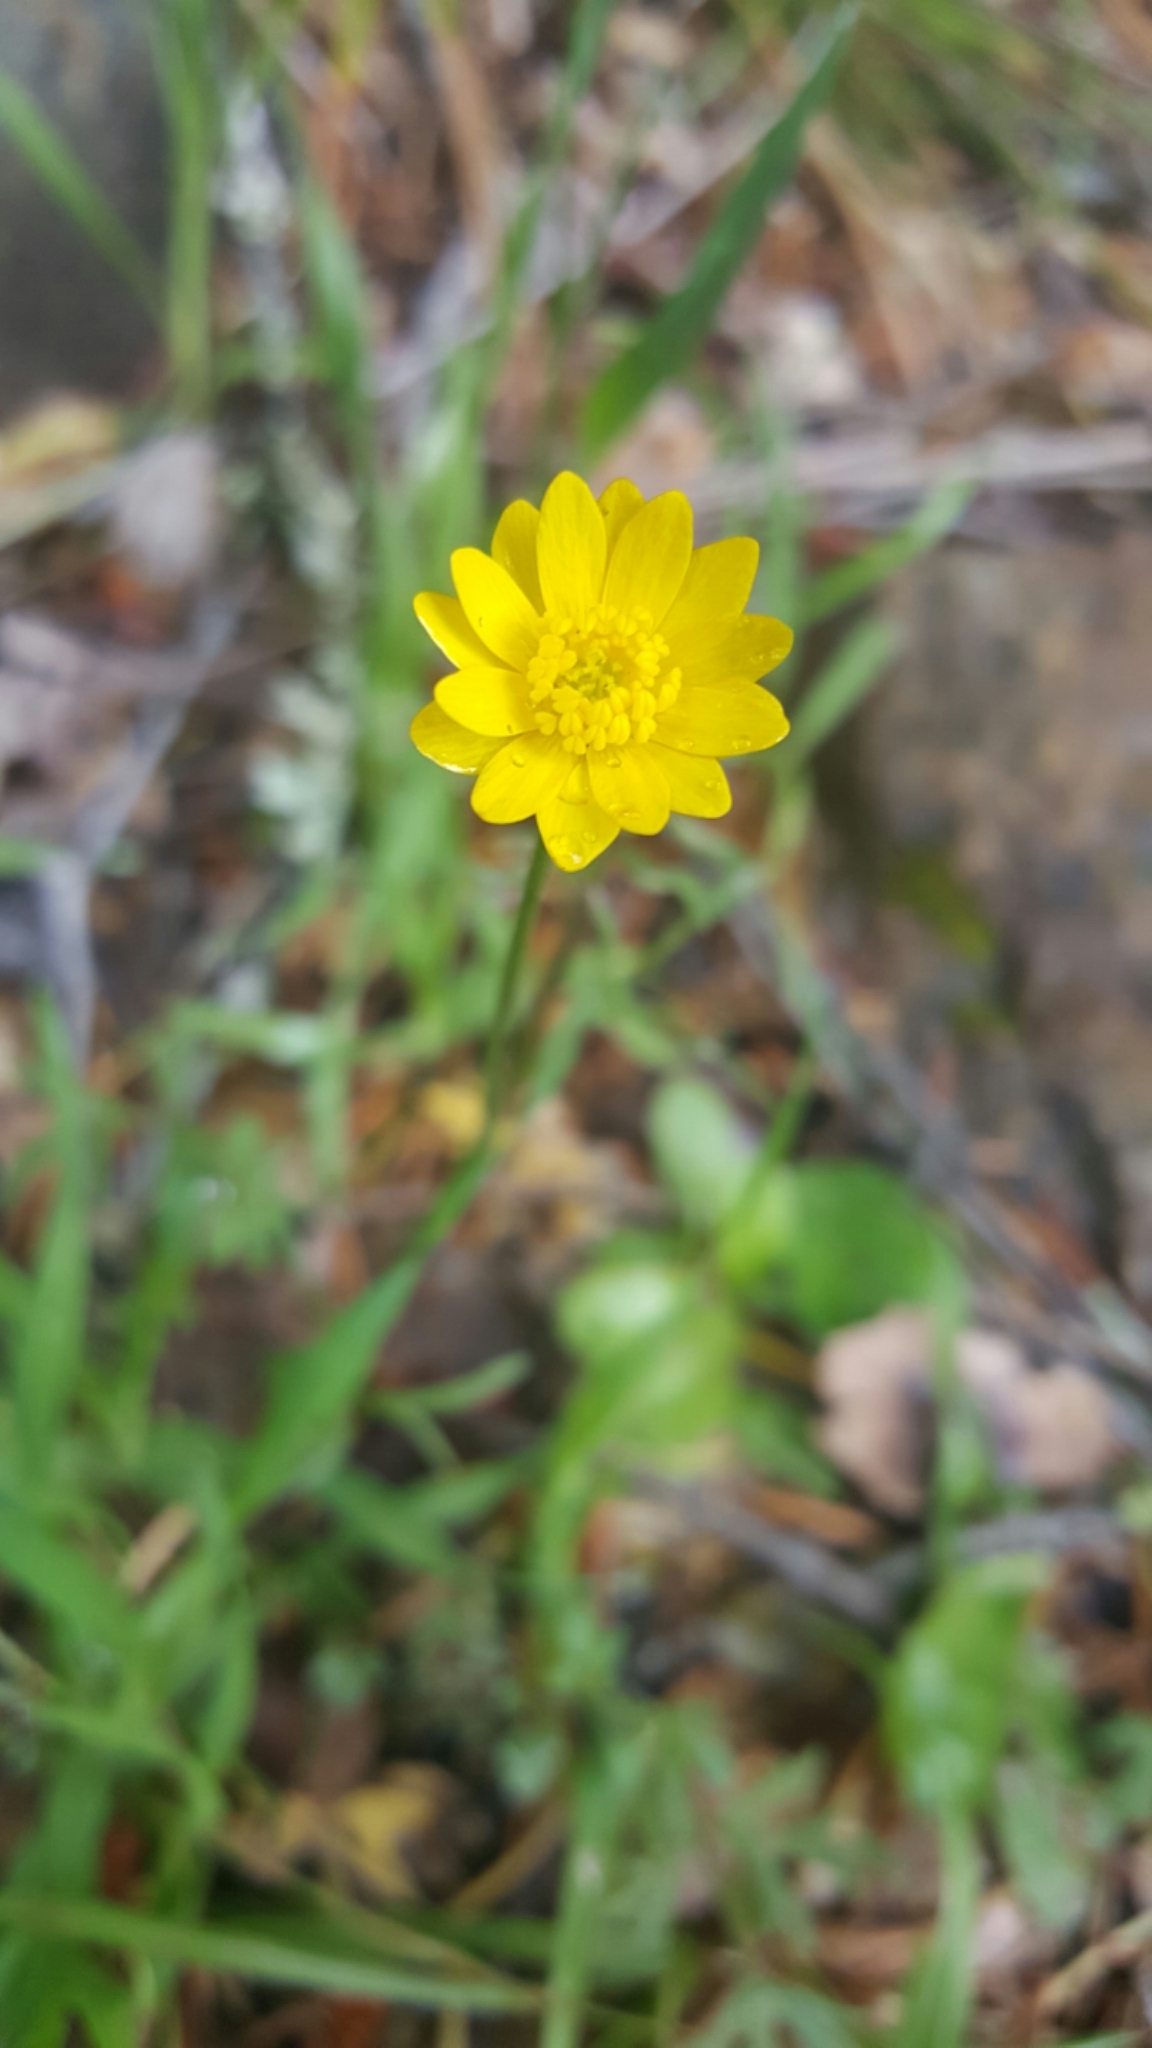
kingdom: Plantae
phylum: Tracheophyta
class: Magnoliopsida
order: Ranunculales
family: Ranunculaceae
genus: Ranunculus
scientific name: Ranunculus californicus
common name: California buttercup
